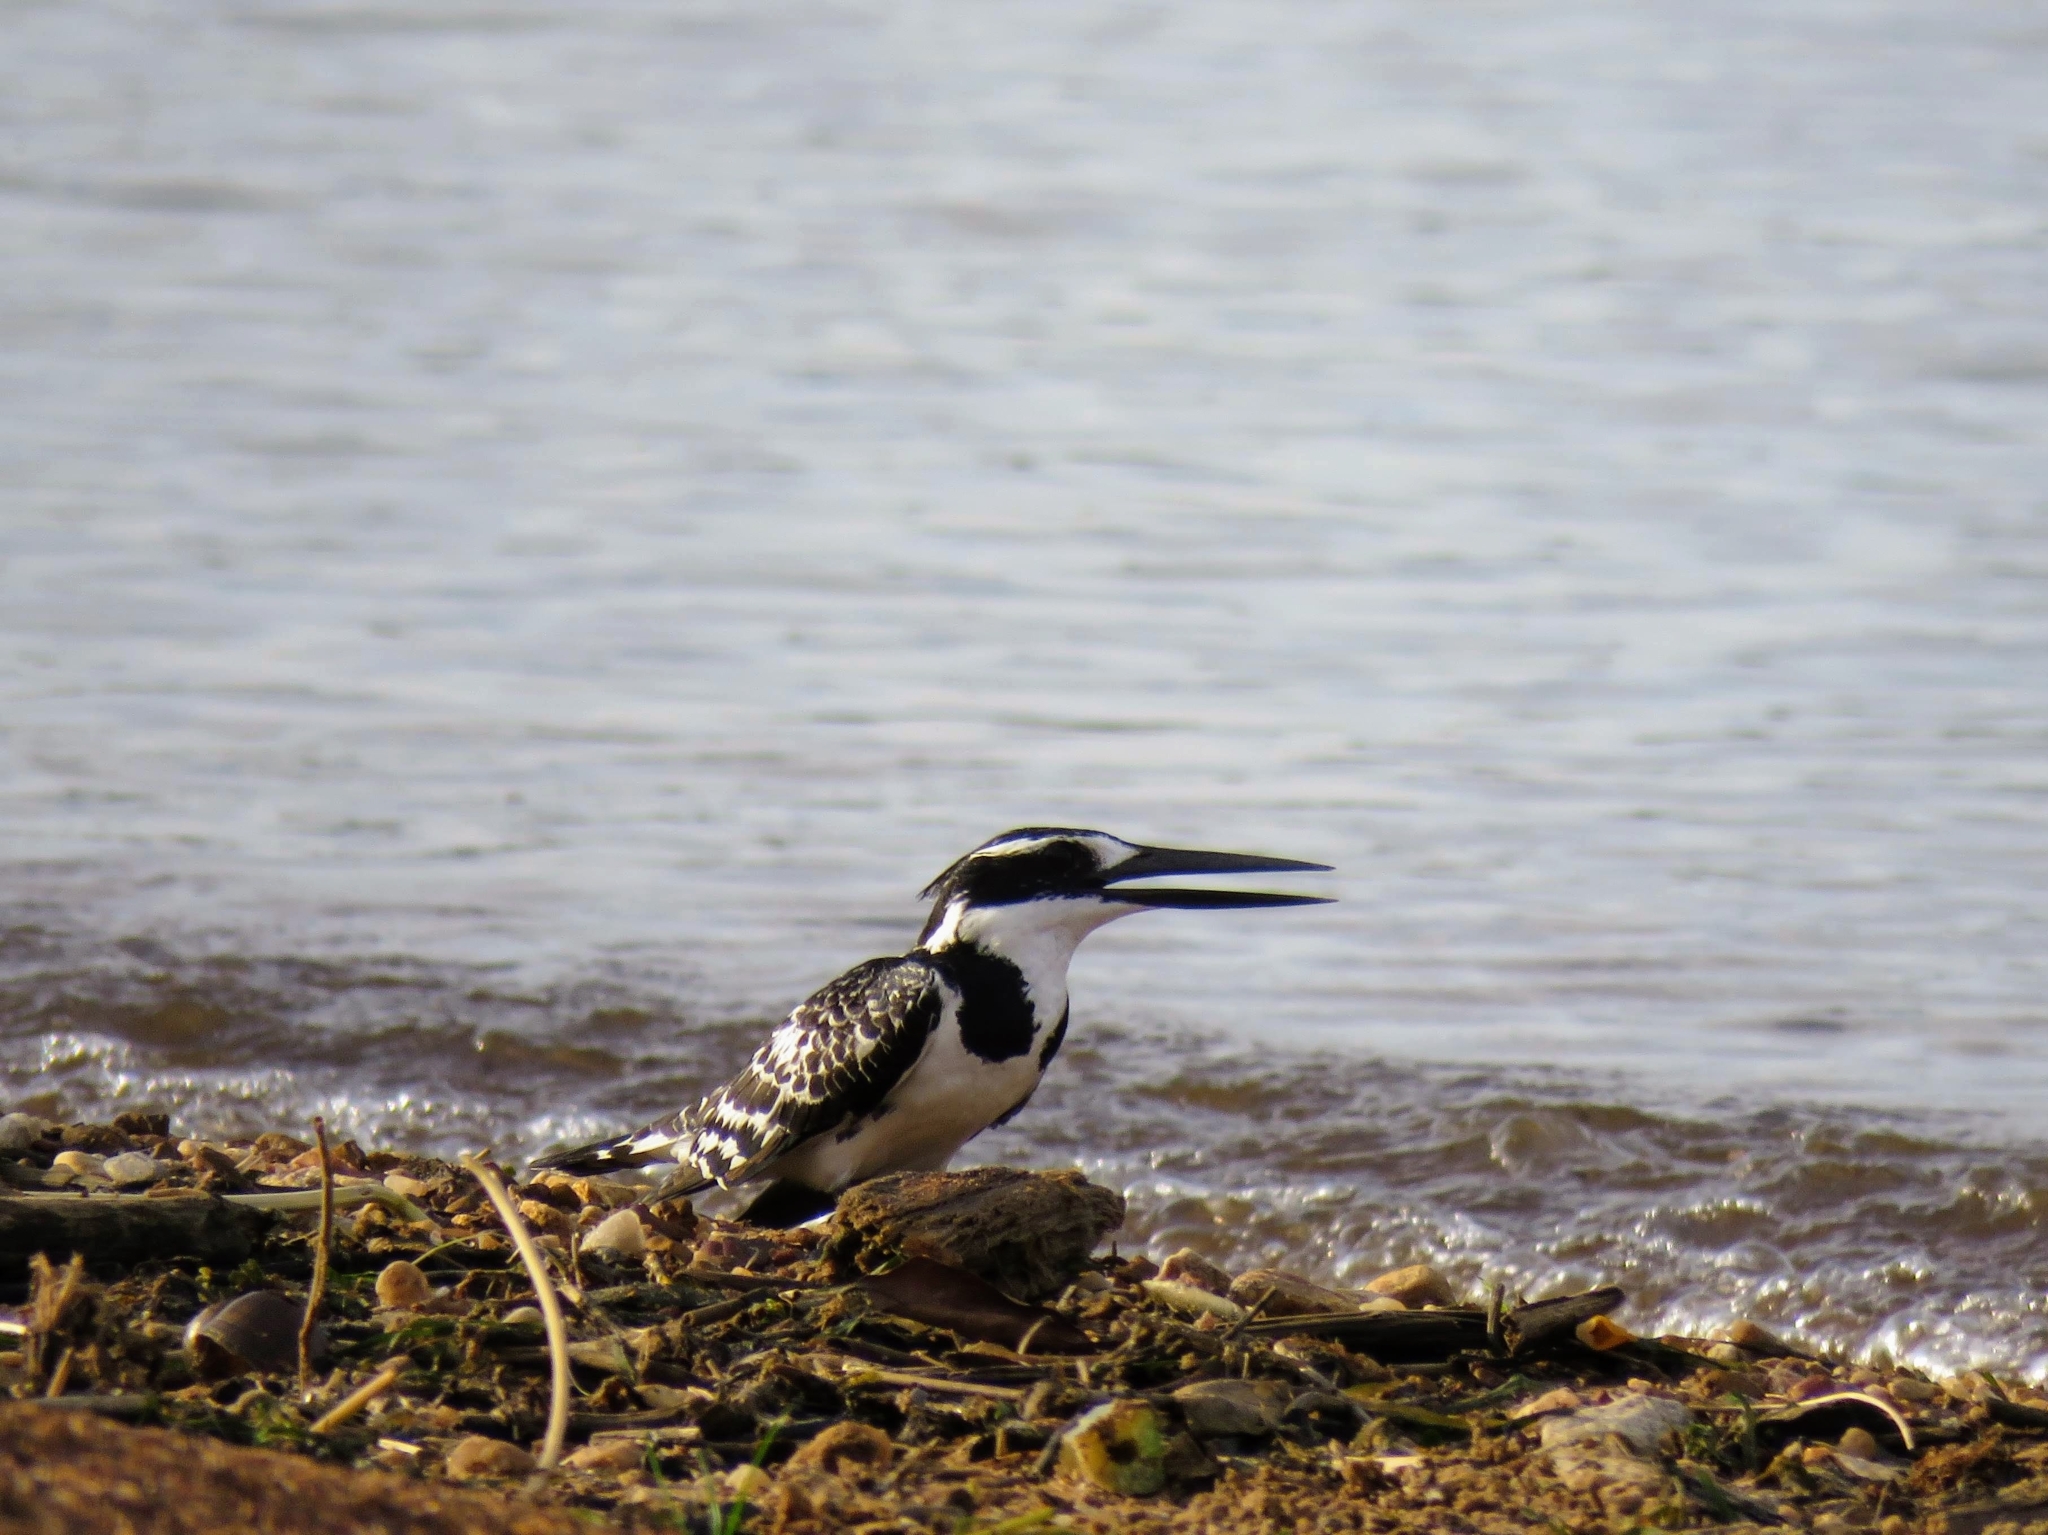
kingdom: Animalia
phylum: Chordata
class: Aves
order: Coraciiformes
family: Alcedinidae
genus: Ceryle
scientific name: Ceryle rudis
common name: Pied kingfisher
